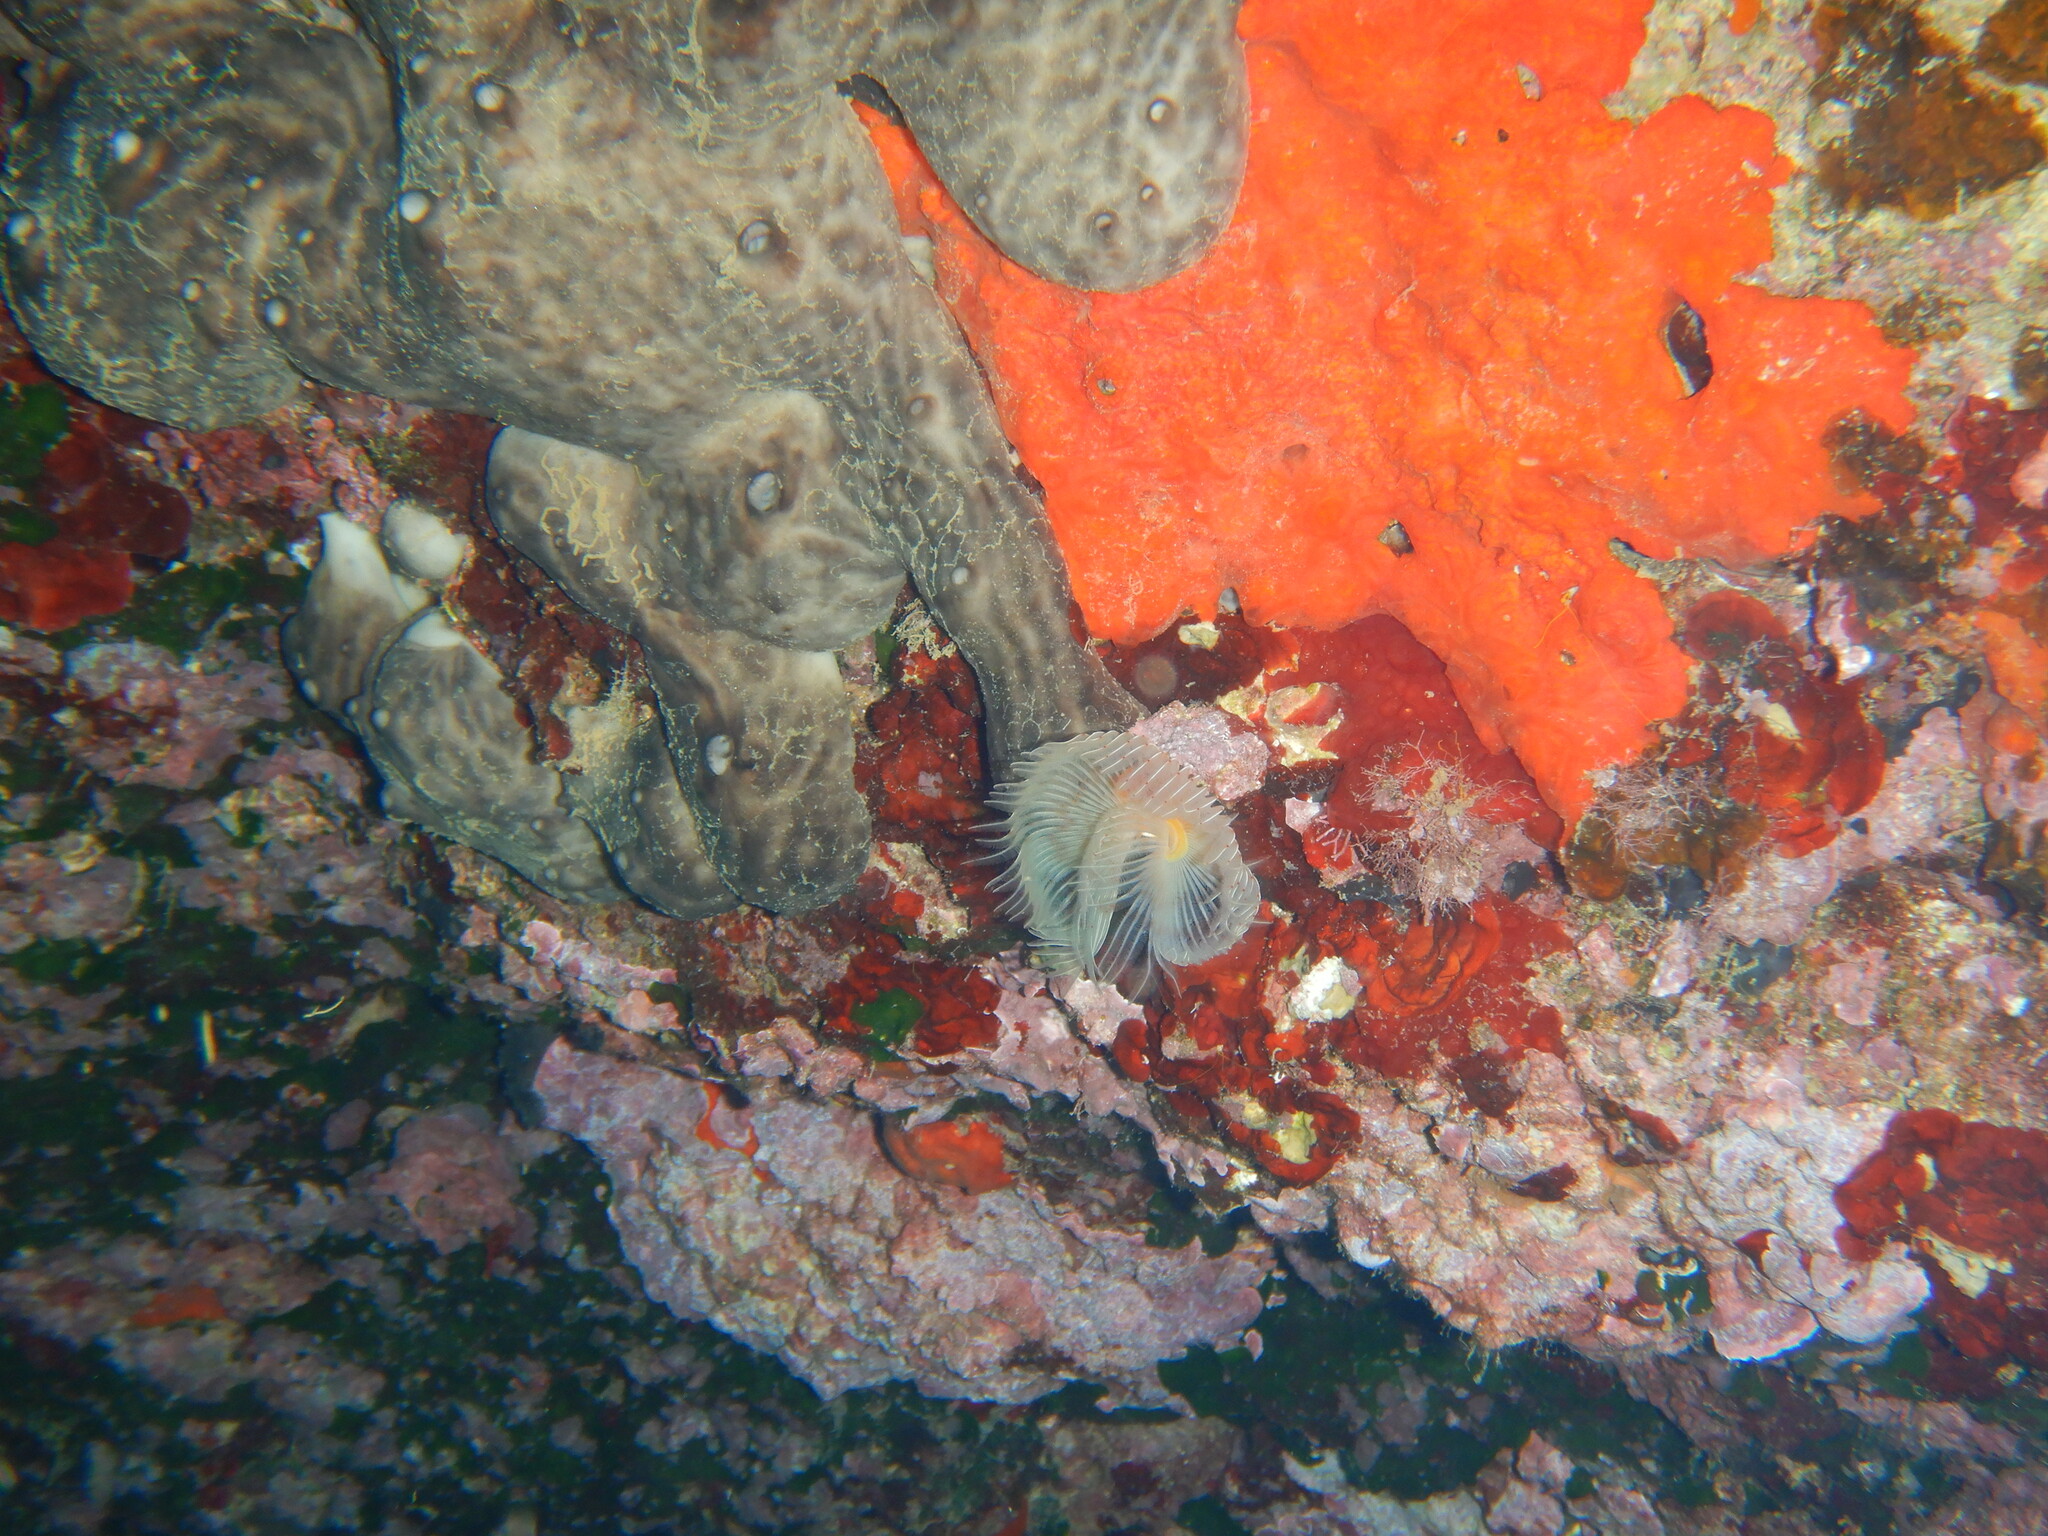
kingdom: Animalia
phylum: Annelida
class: Polychaeta
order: Sabellida
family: Serpulidae
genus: Protula
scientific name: Protula tubularia
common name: Red-spotted horseshoe
